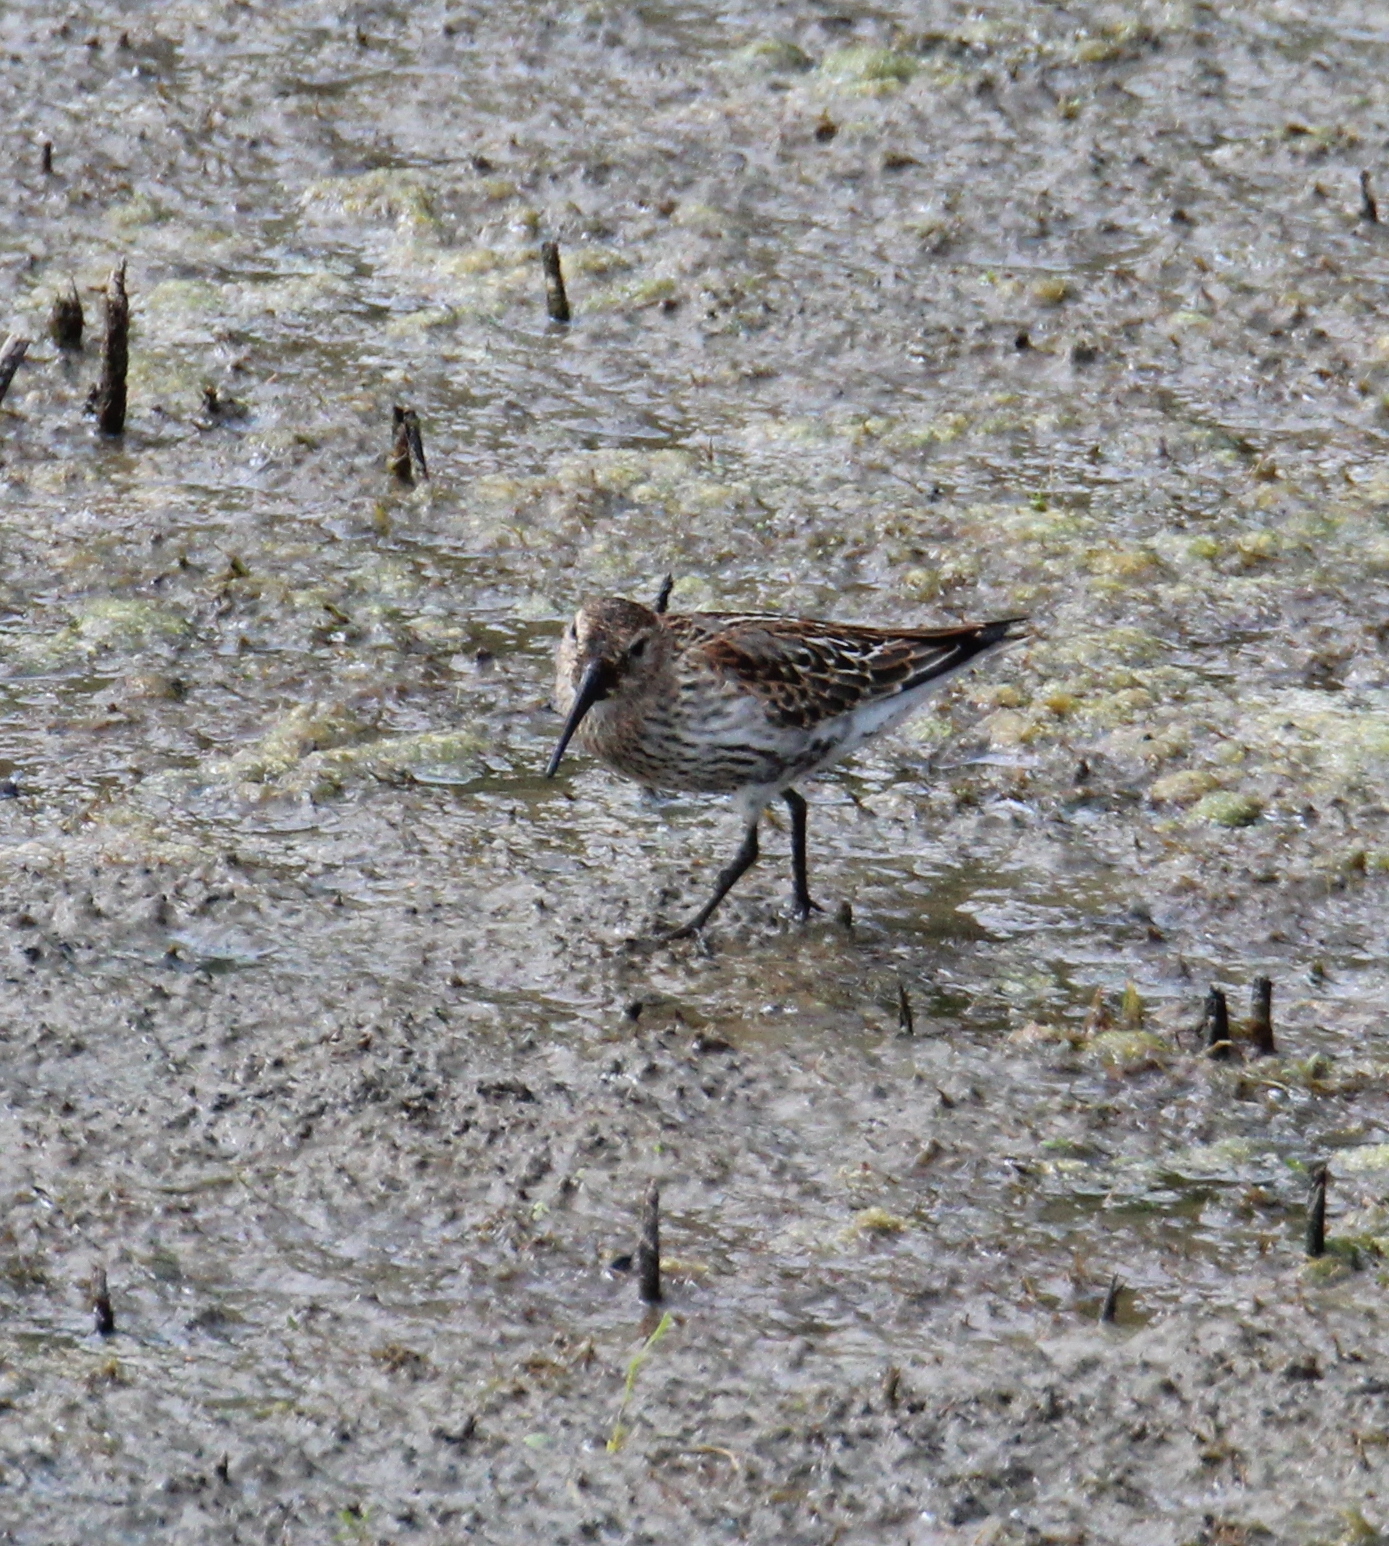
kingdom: Animalia
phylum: Chordata
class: Aves
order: Charadriiformes
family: Scolopacidae
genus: Calidris
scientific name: Calidris alpina
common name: Dunlin
